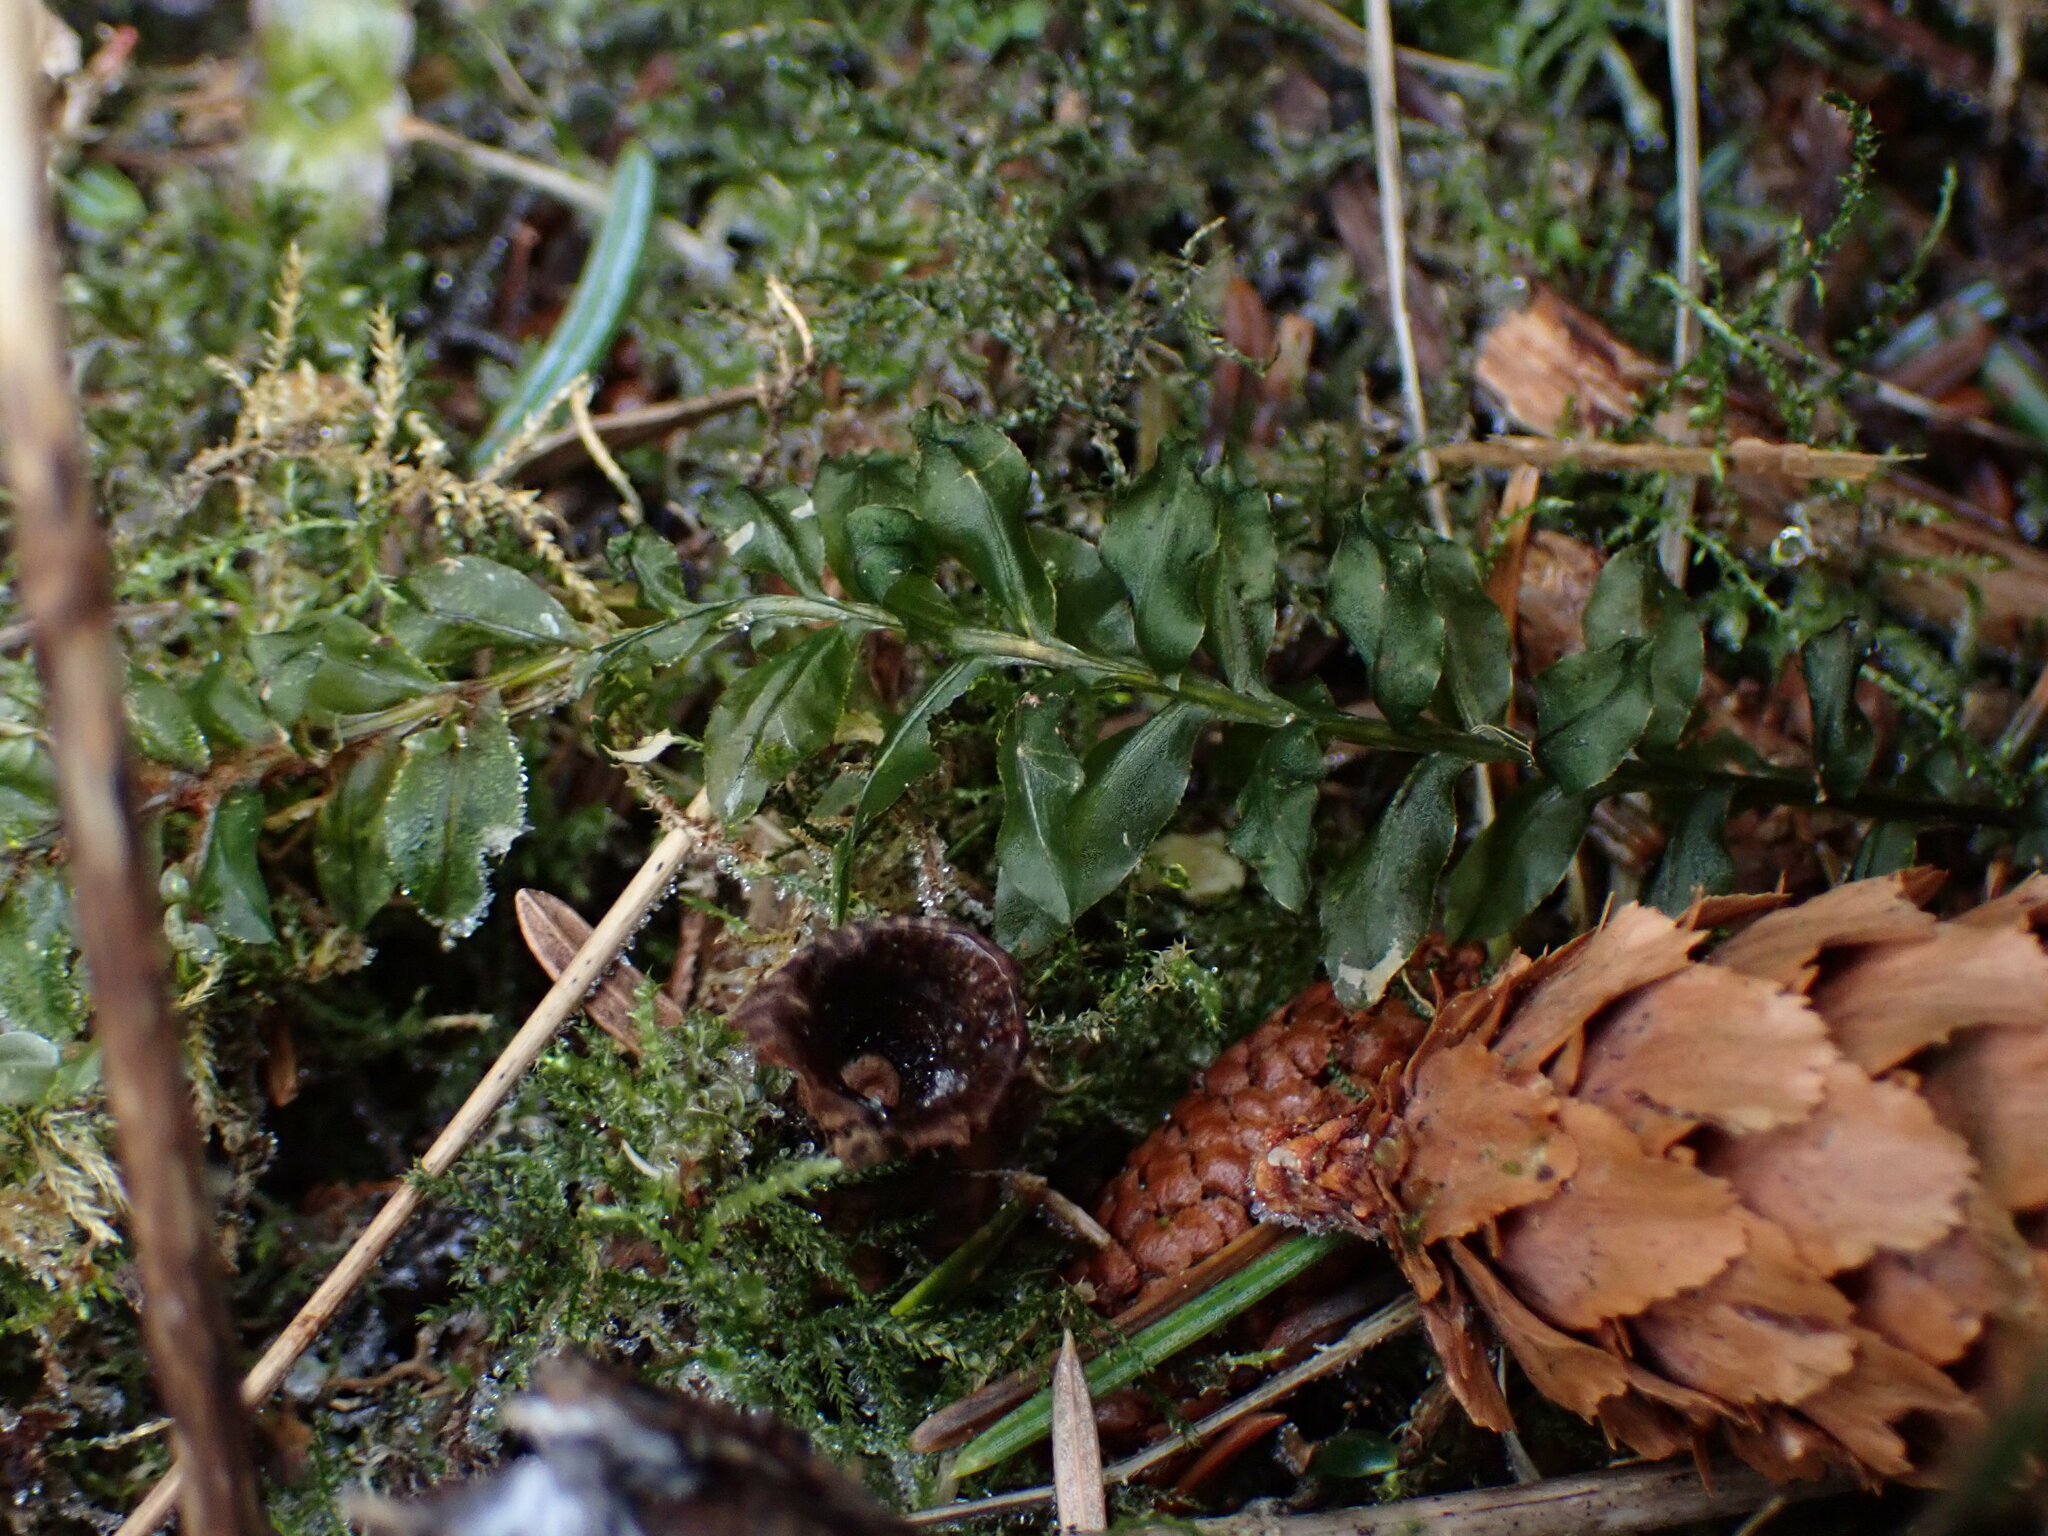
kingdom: Plantae
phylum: Bryophyta
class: Bryopsida
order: Bryales
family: Mniaceae
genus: Plagiomnium
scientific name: Plagiomnium insigne
